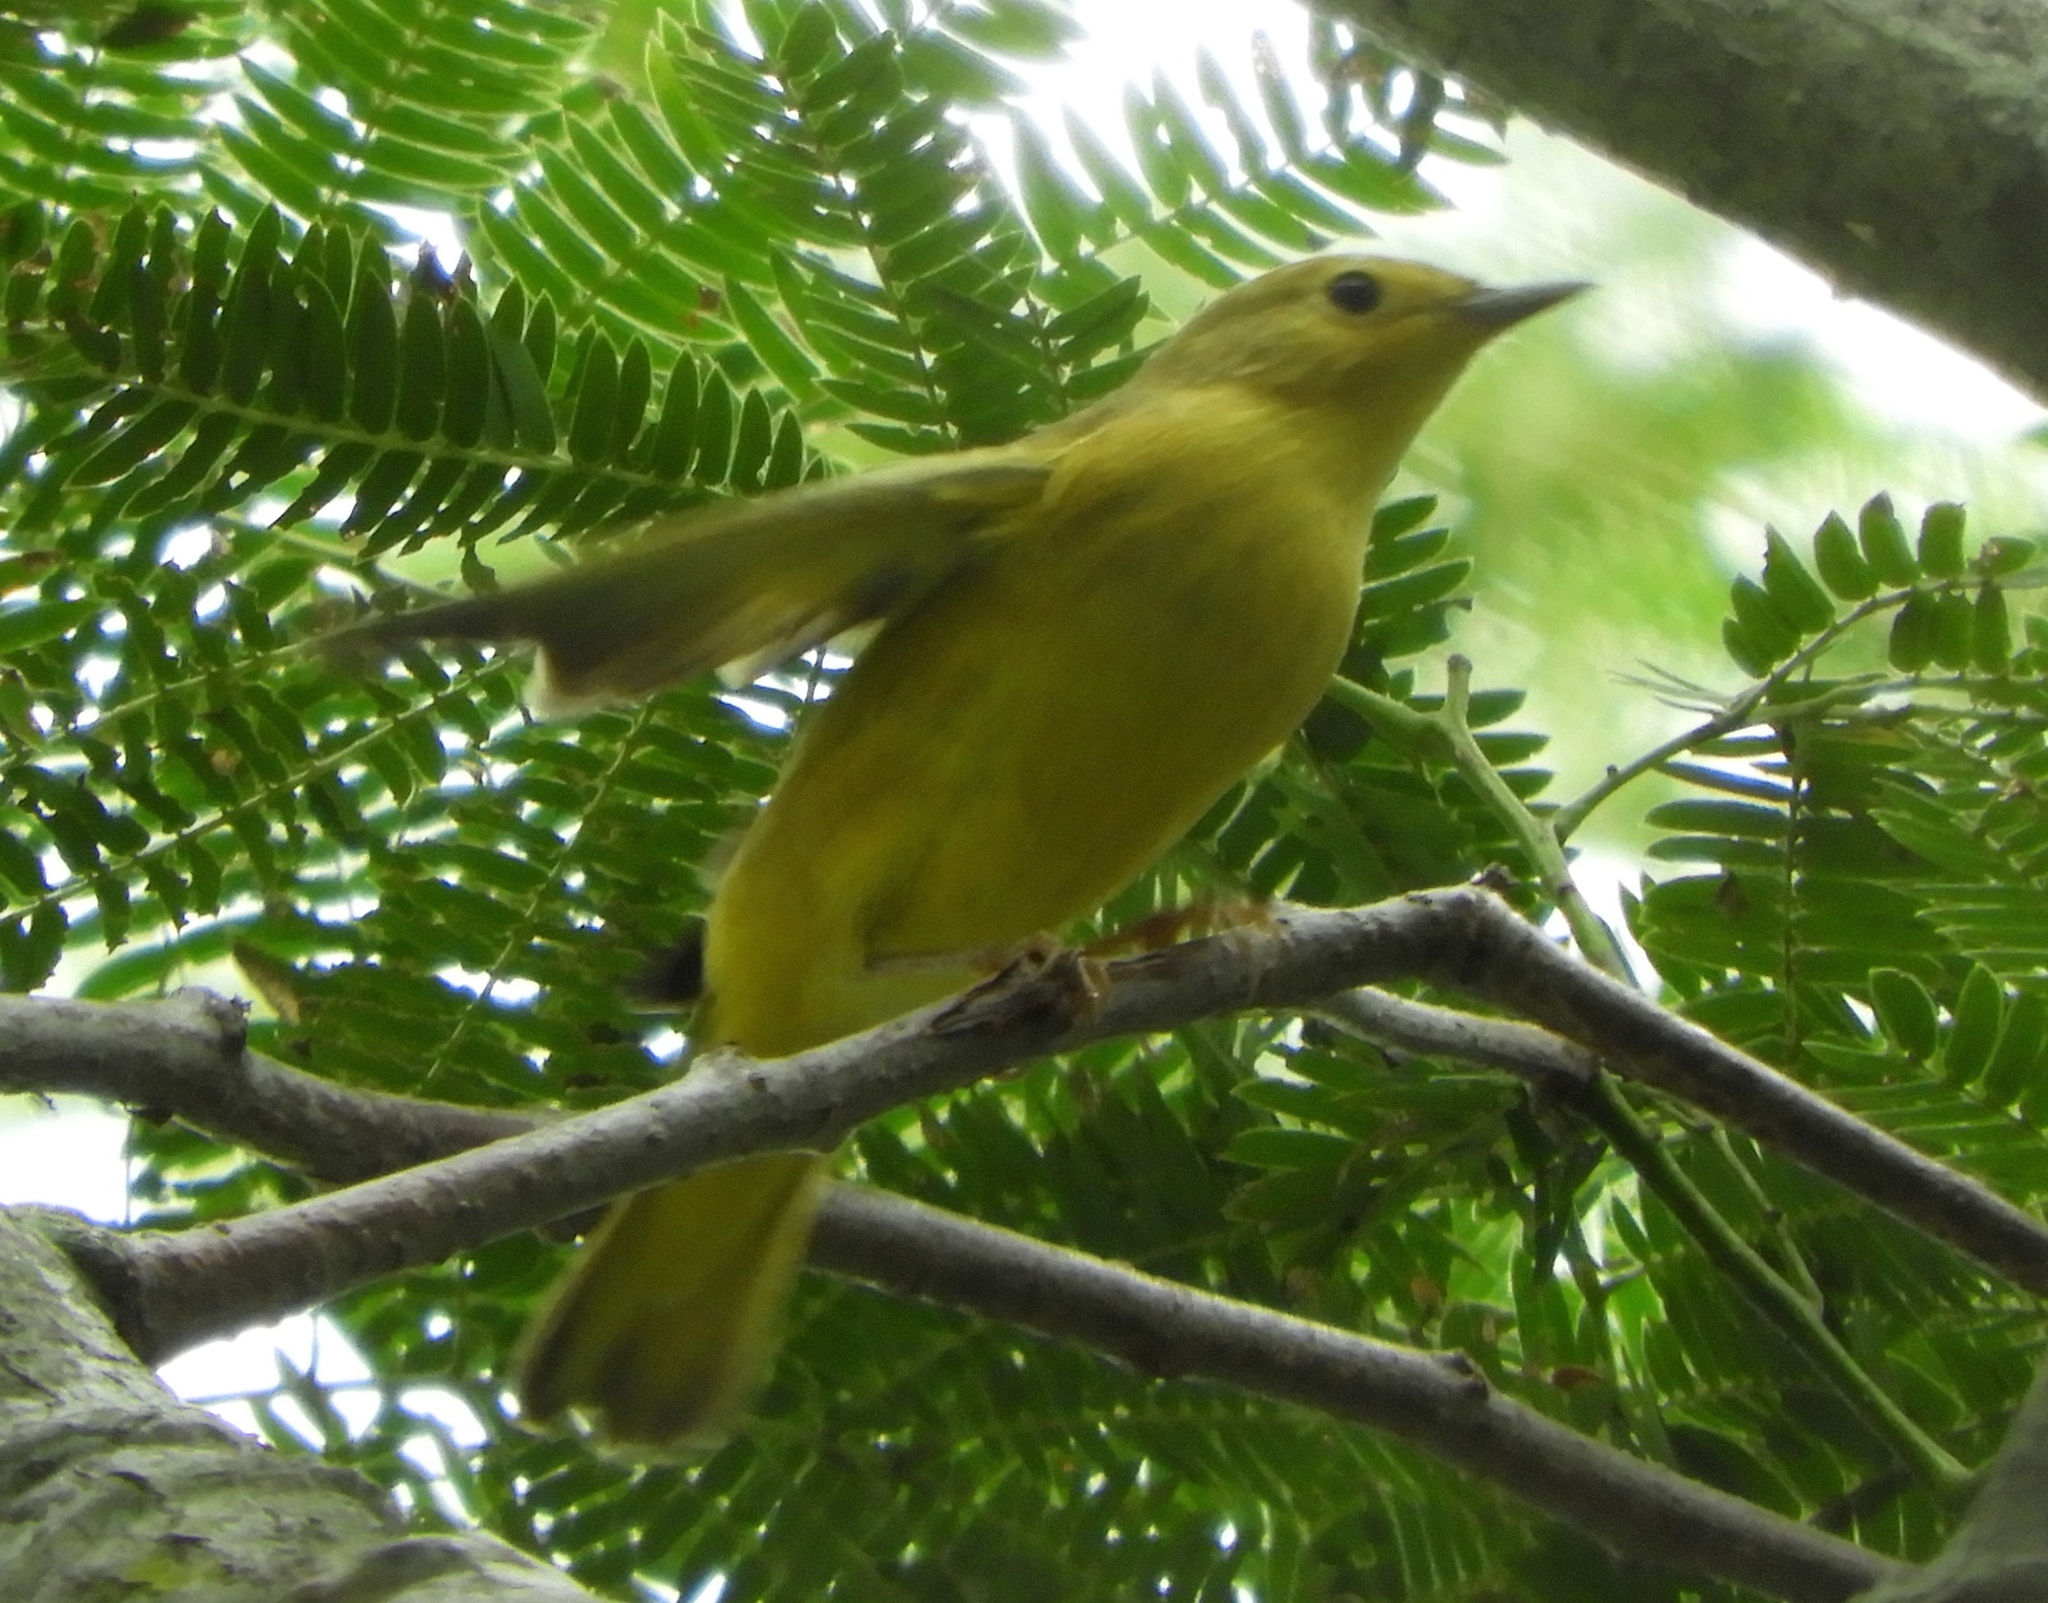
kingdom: Animalia
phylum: Chordata
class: Aves
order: Passeriformes
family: Parulidae
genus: Setophaga
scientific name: Setophaga petechia
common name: Yellow warbler
